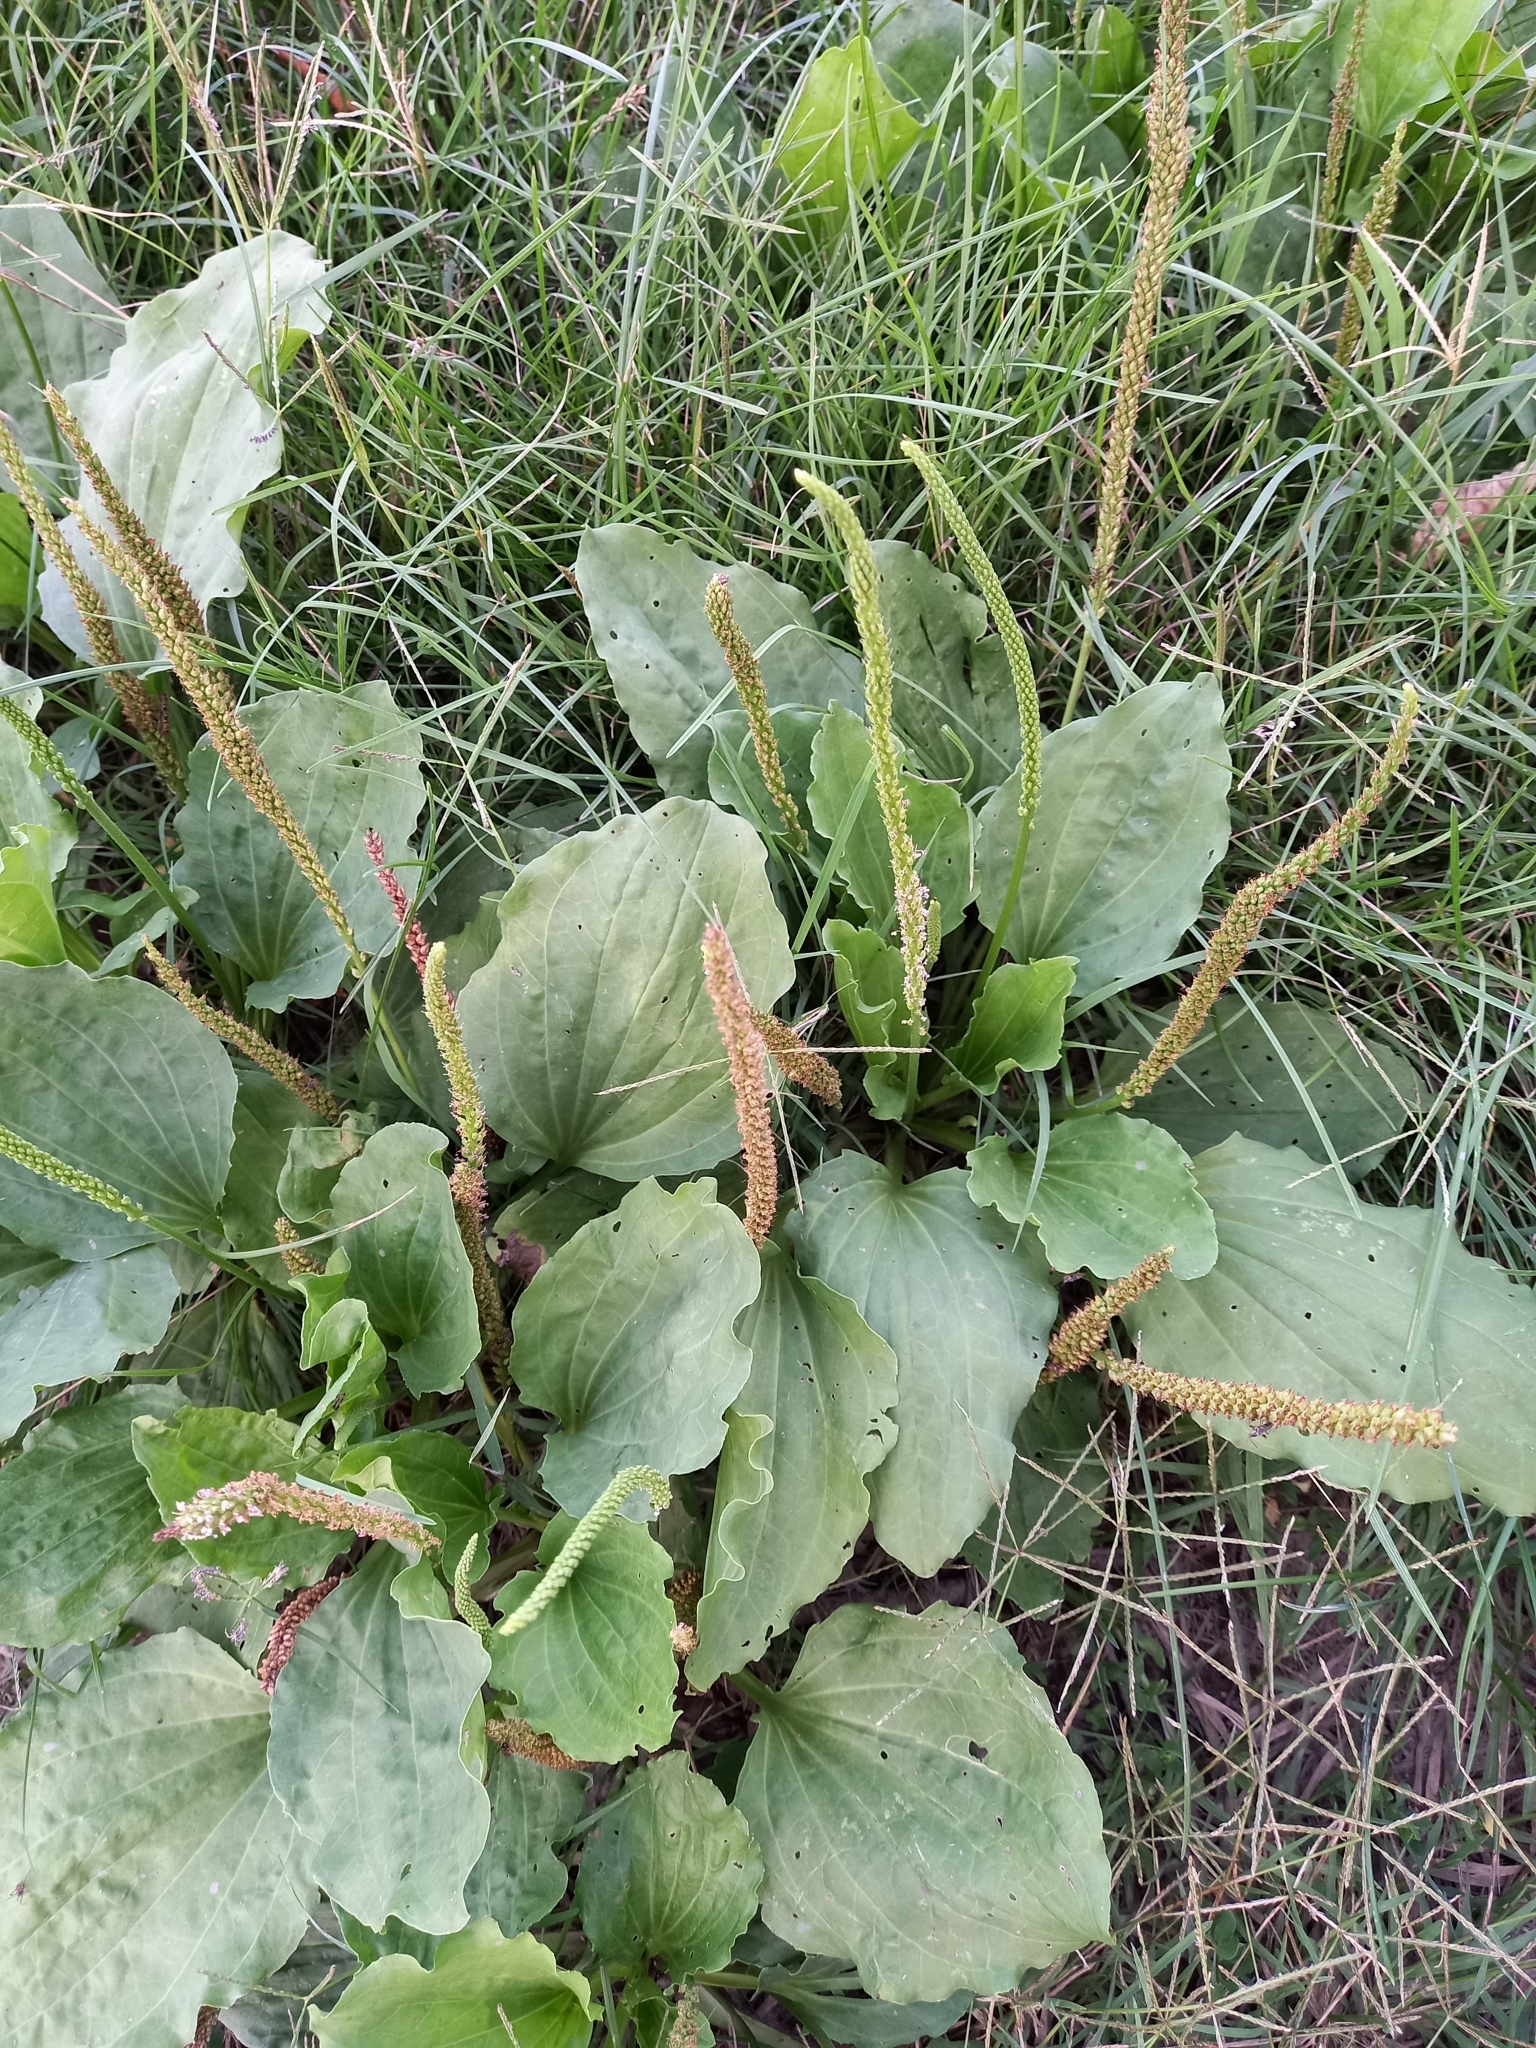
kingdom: Plantae
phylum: Tracheophyta
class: Magnoliopsida
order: Lamiales
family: Plantaginaceae
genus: Plantago
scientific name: Plantago major
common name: Common plantain
